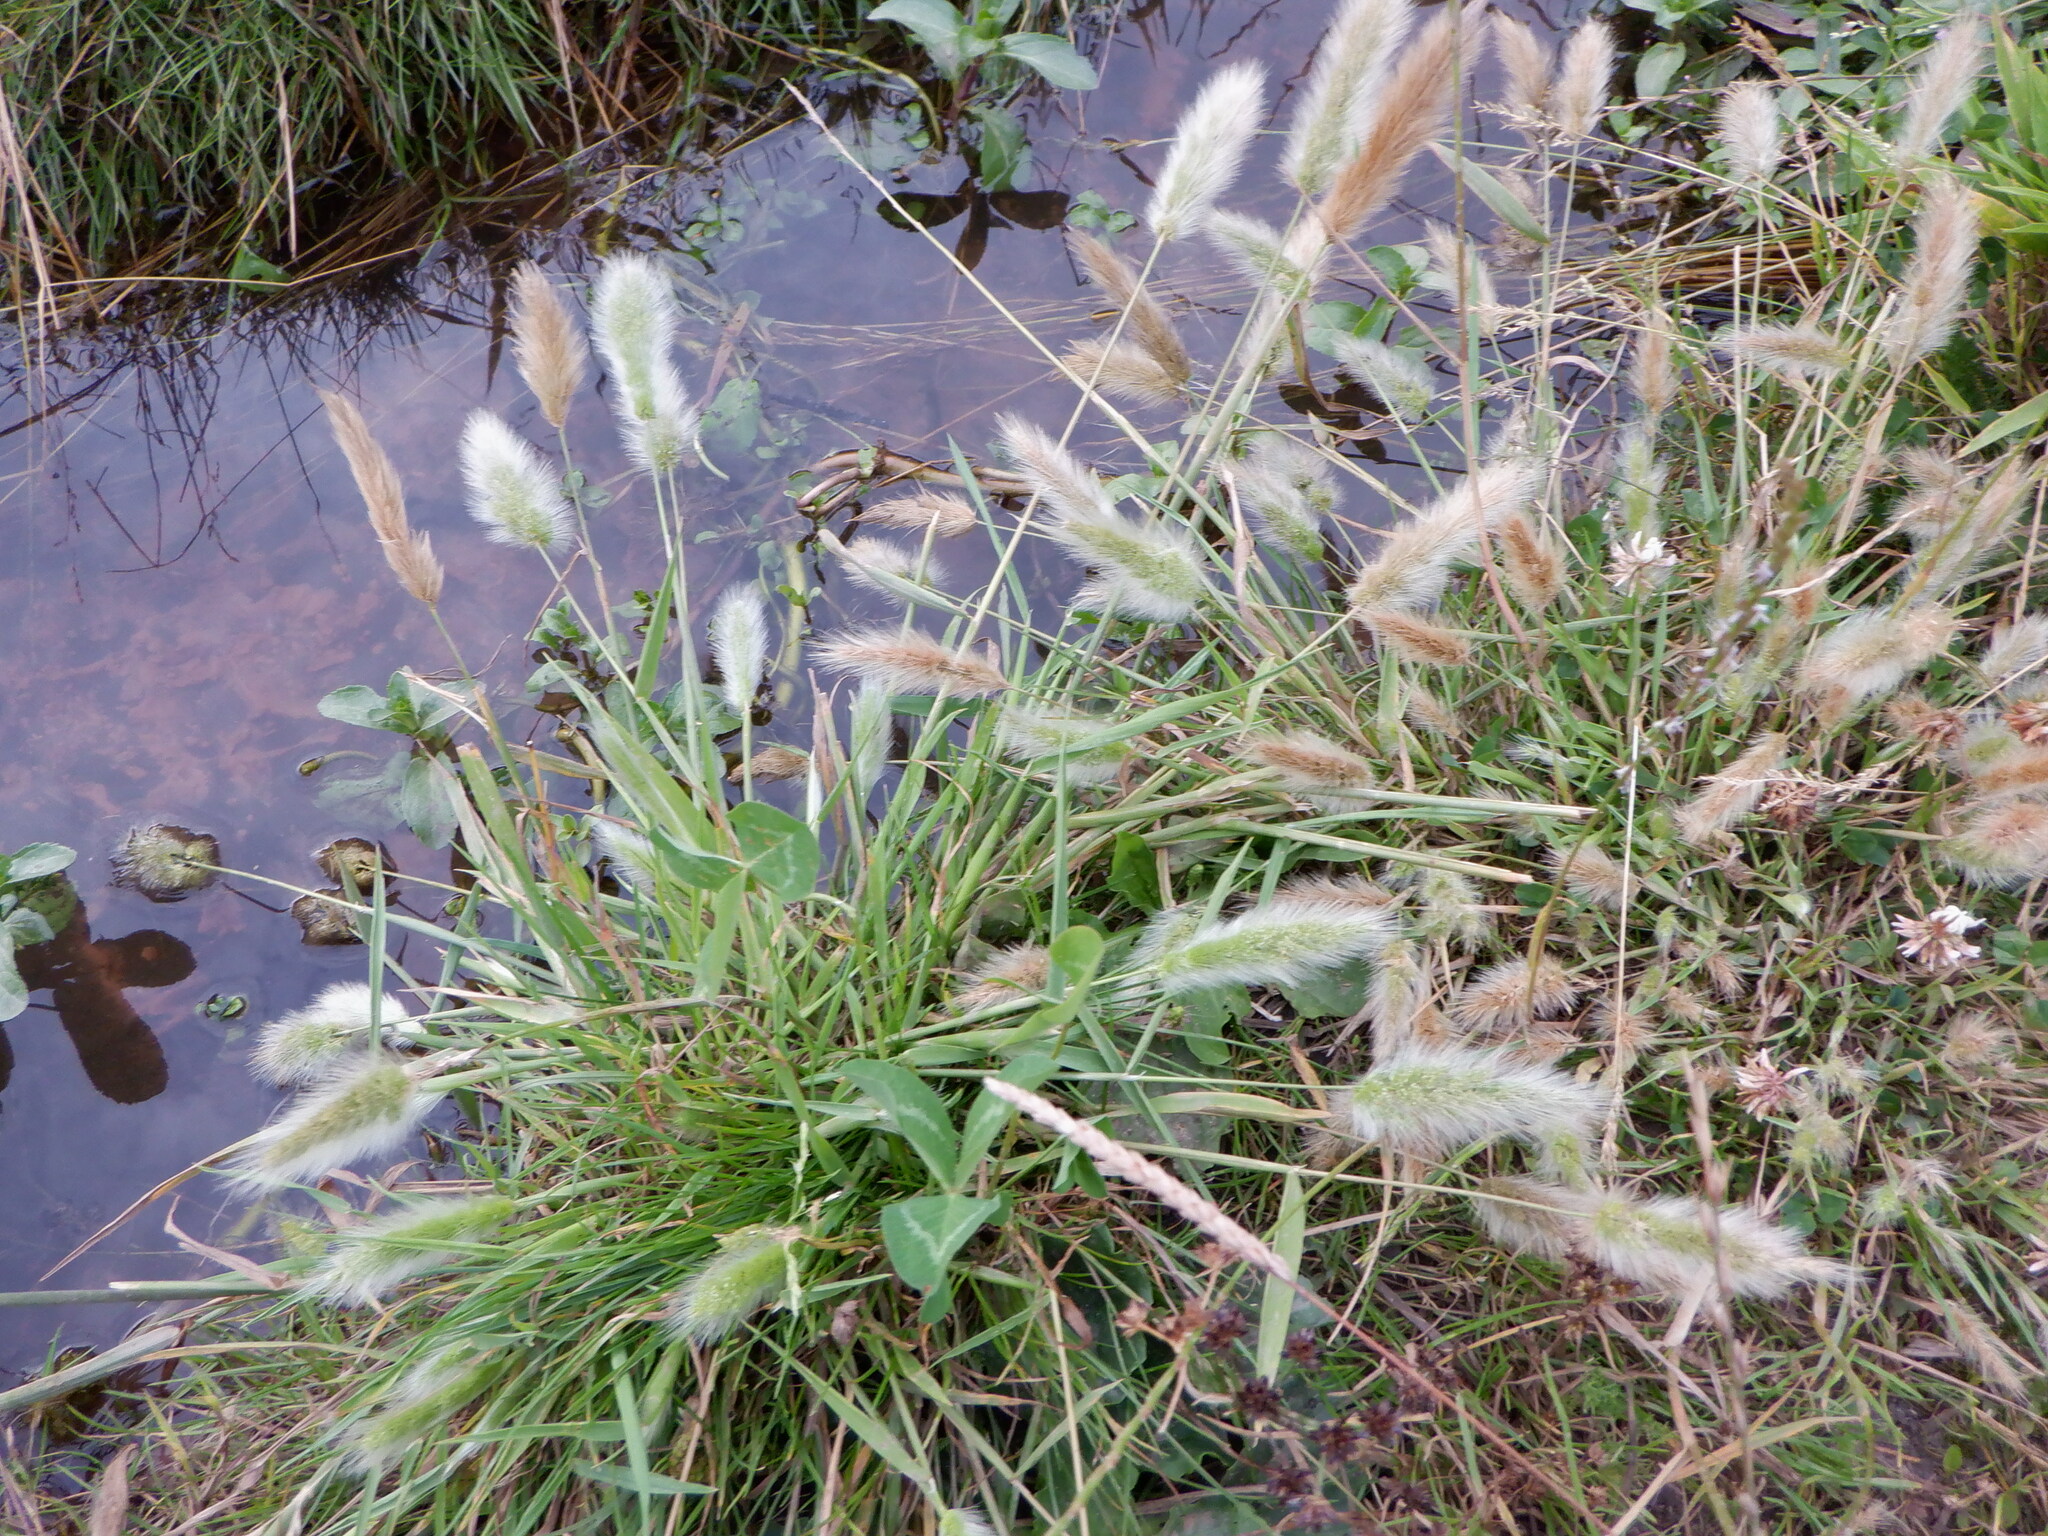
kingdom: Plantae
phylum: Tracheophyta
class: Liliopsida
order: Poales
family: Poaceae
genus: Polypogon
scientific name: Polypogon monspeliensis
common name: Annual rabbitsfoot grass
